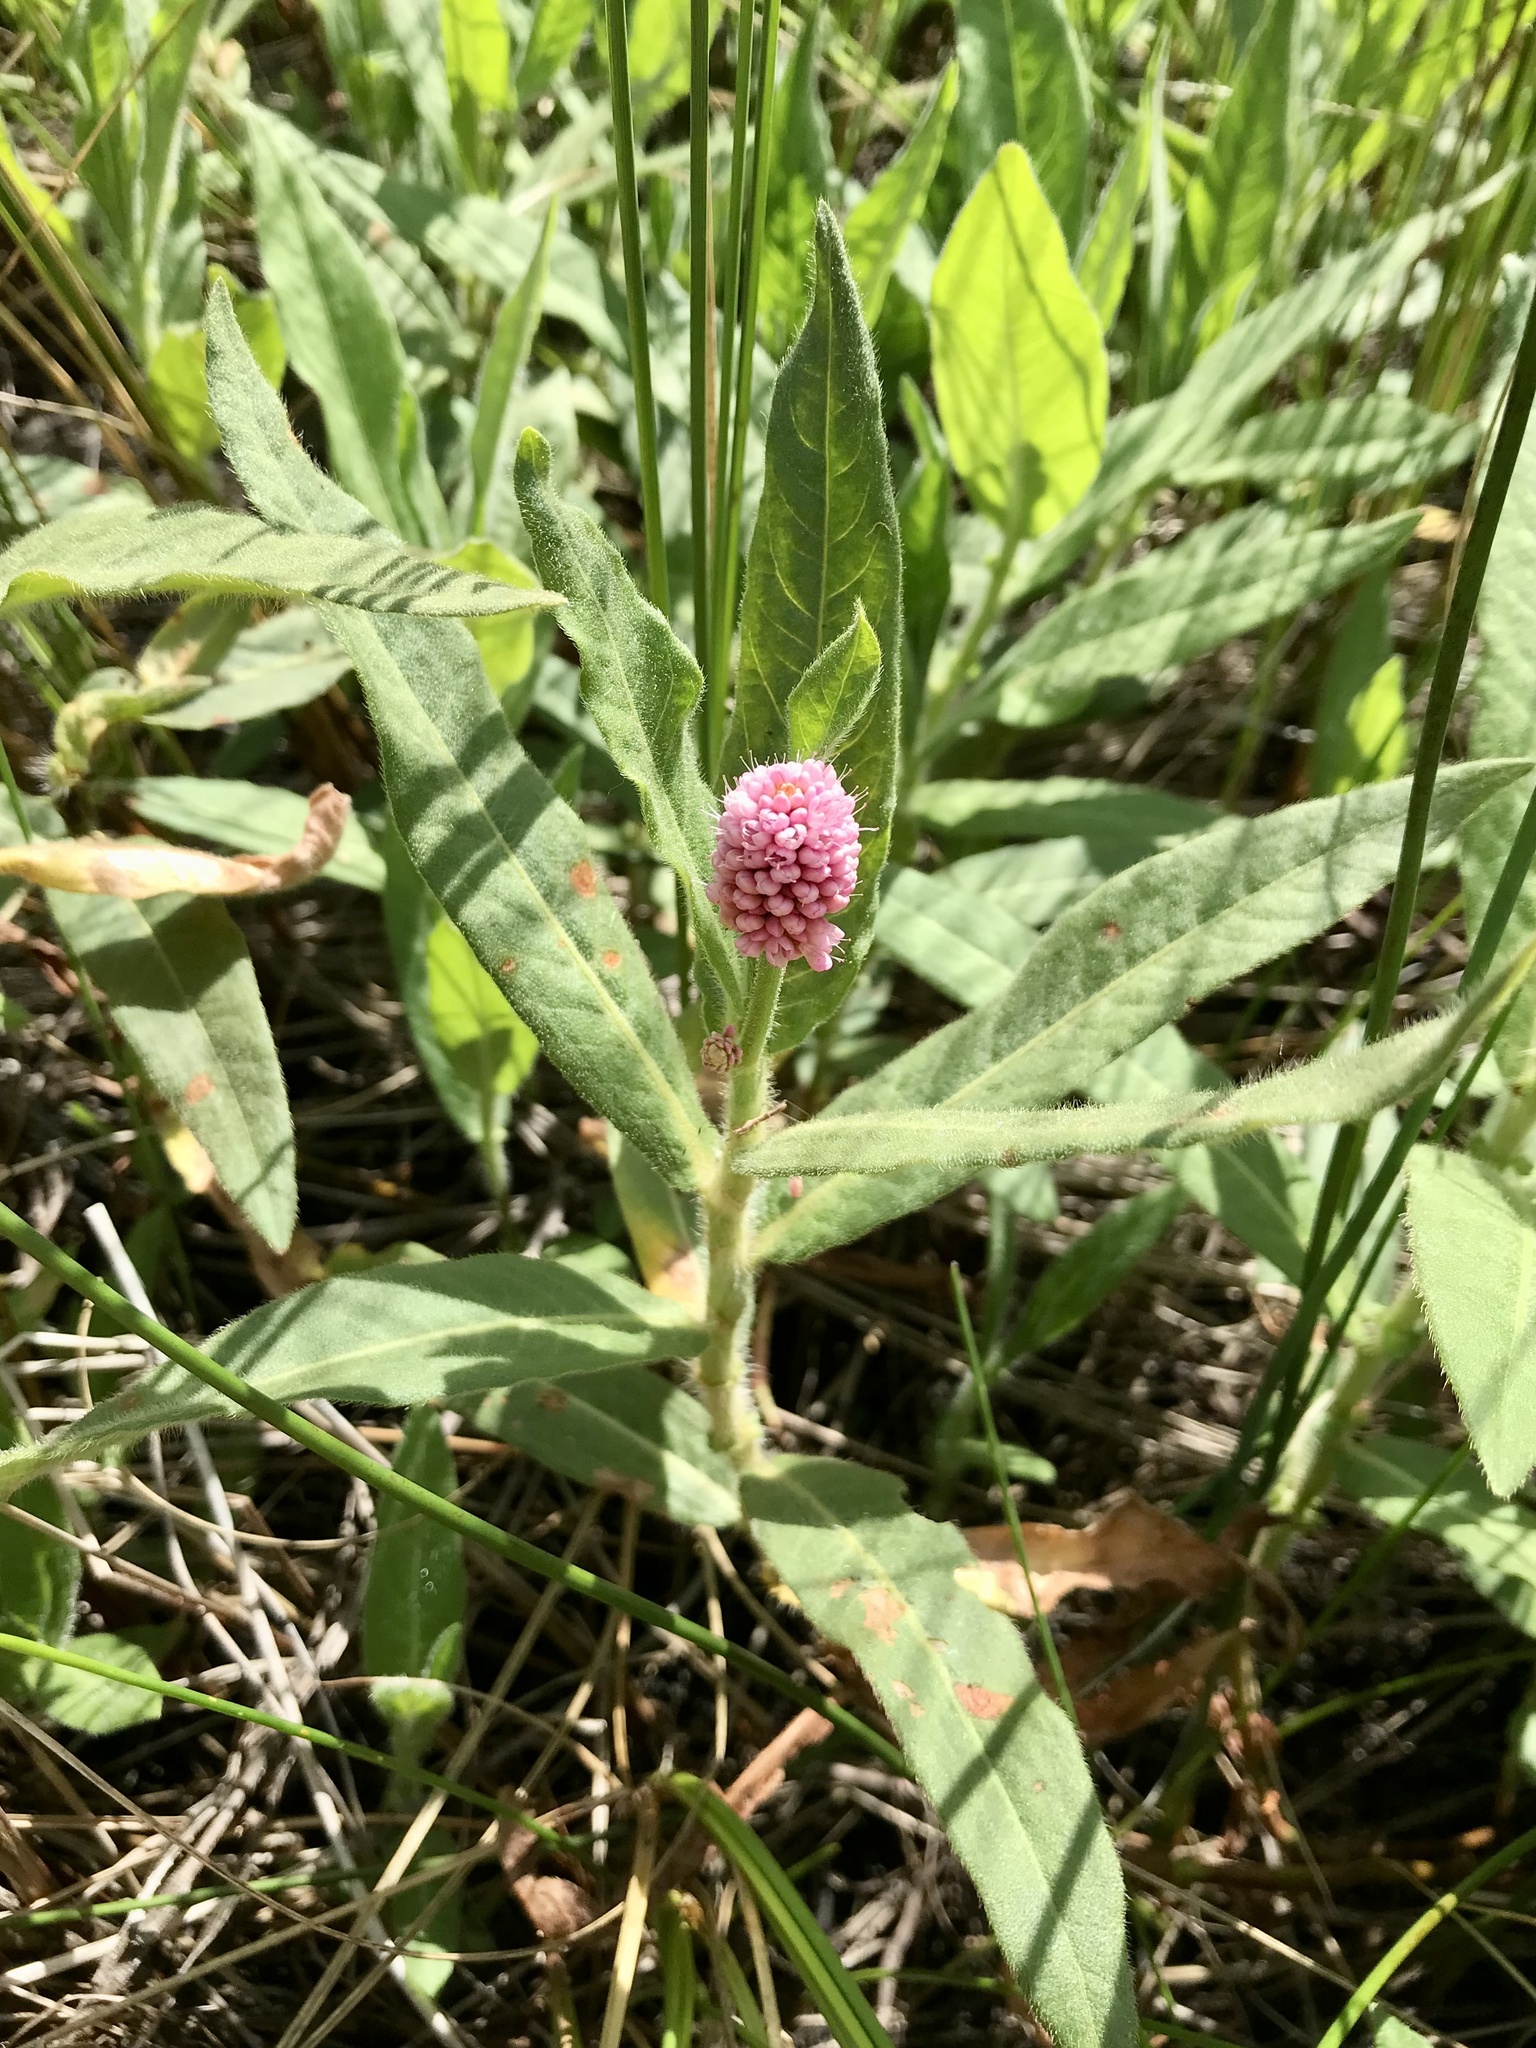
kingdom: Plantae
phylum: Tracheophyta
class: Magnoliopsida
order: Caryophyllales
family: Polygonaceae
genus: Persicaria
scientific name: Persicaria amphibia
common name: Amphibious bistort
